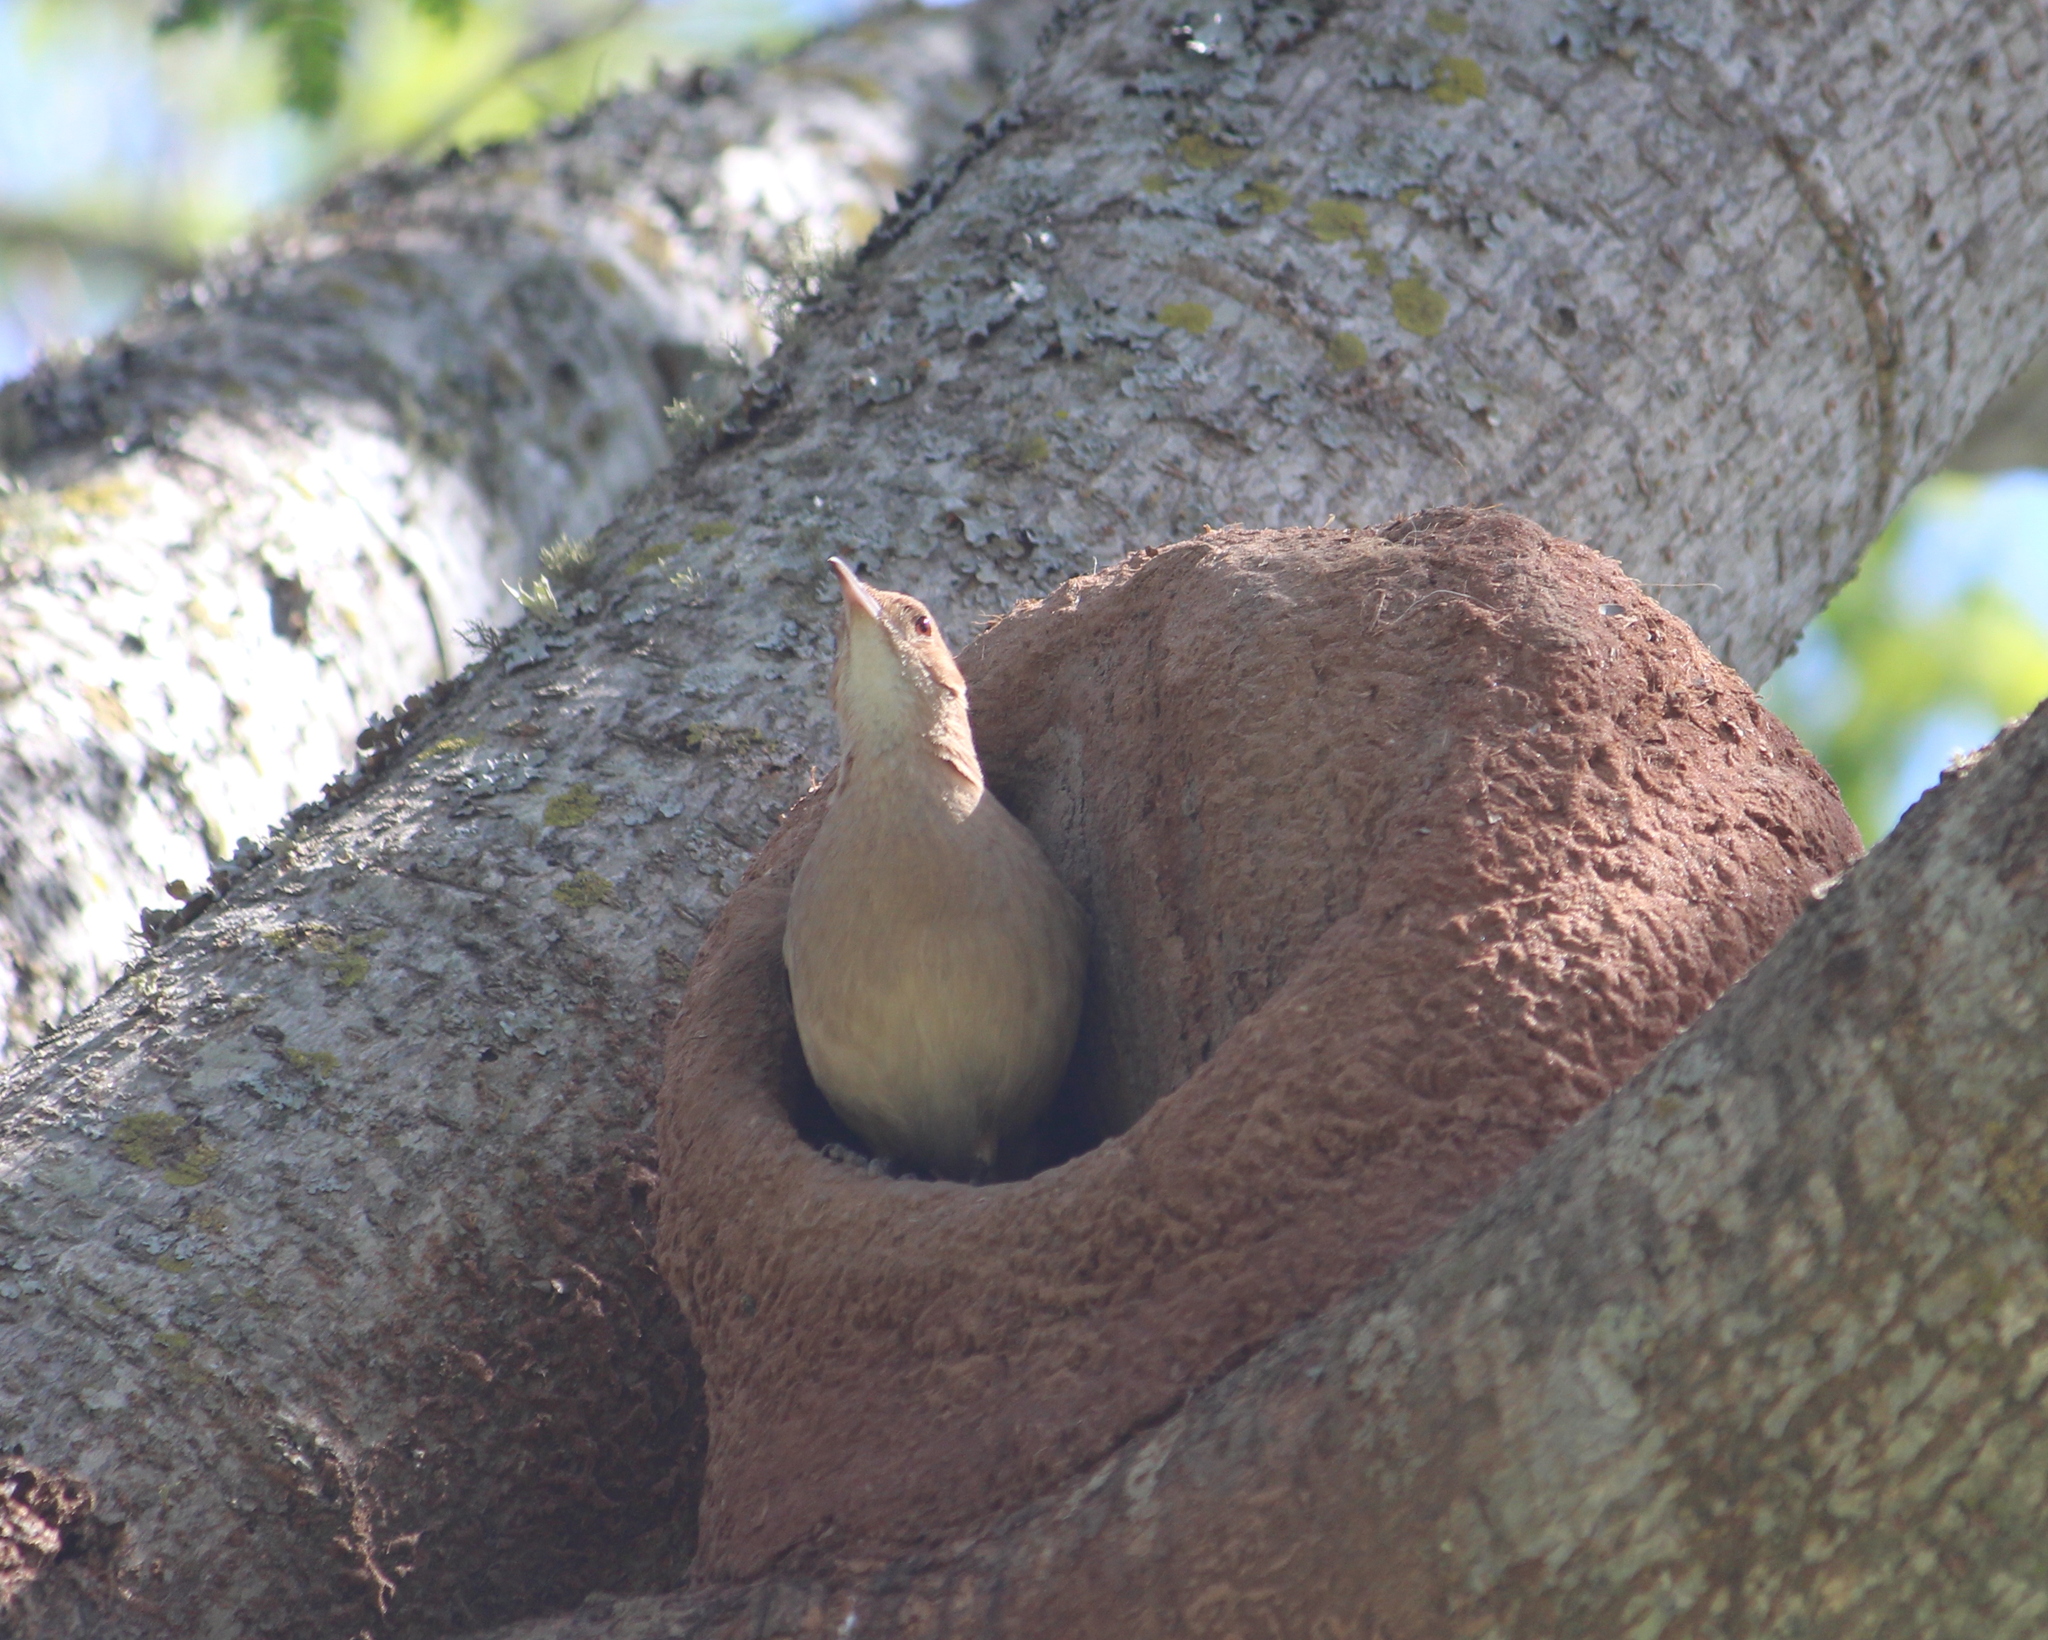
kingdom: Animalia
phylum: Chordata
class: Aves
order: Passeriformes
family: Furnariidae
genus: Furnarius
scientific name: Furnarius rufus
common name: Rufous hornero
